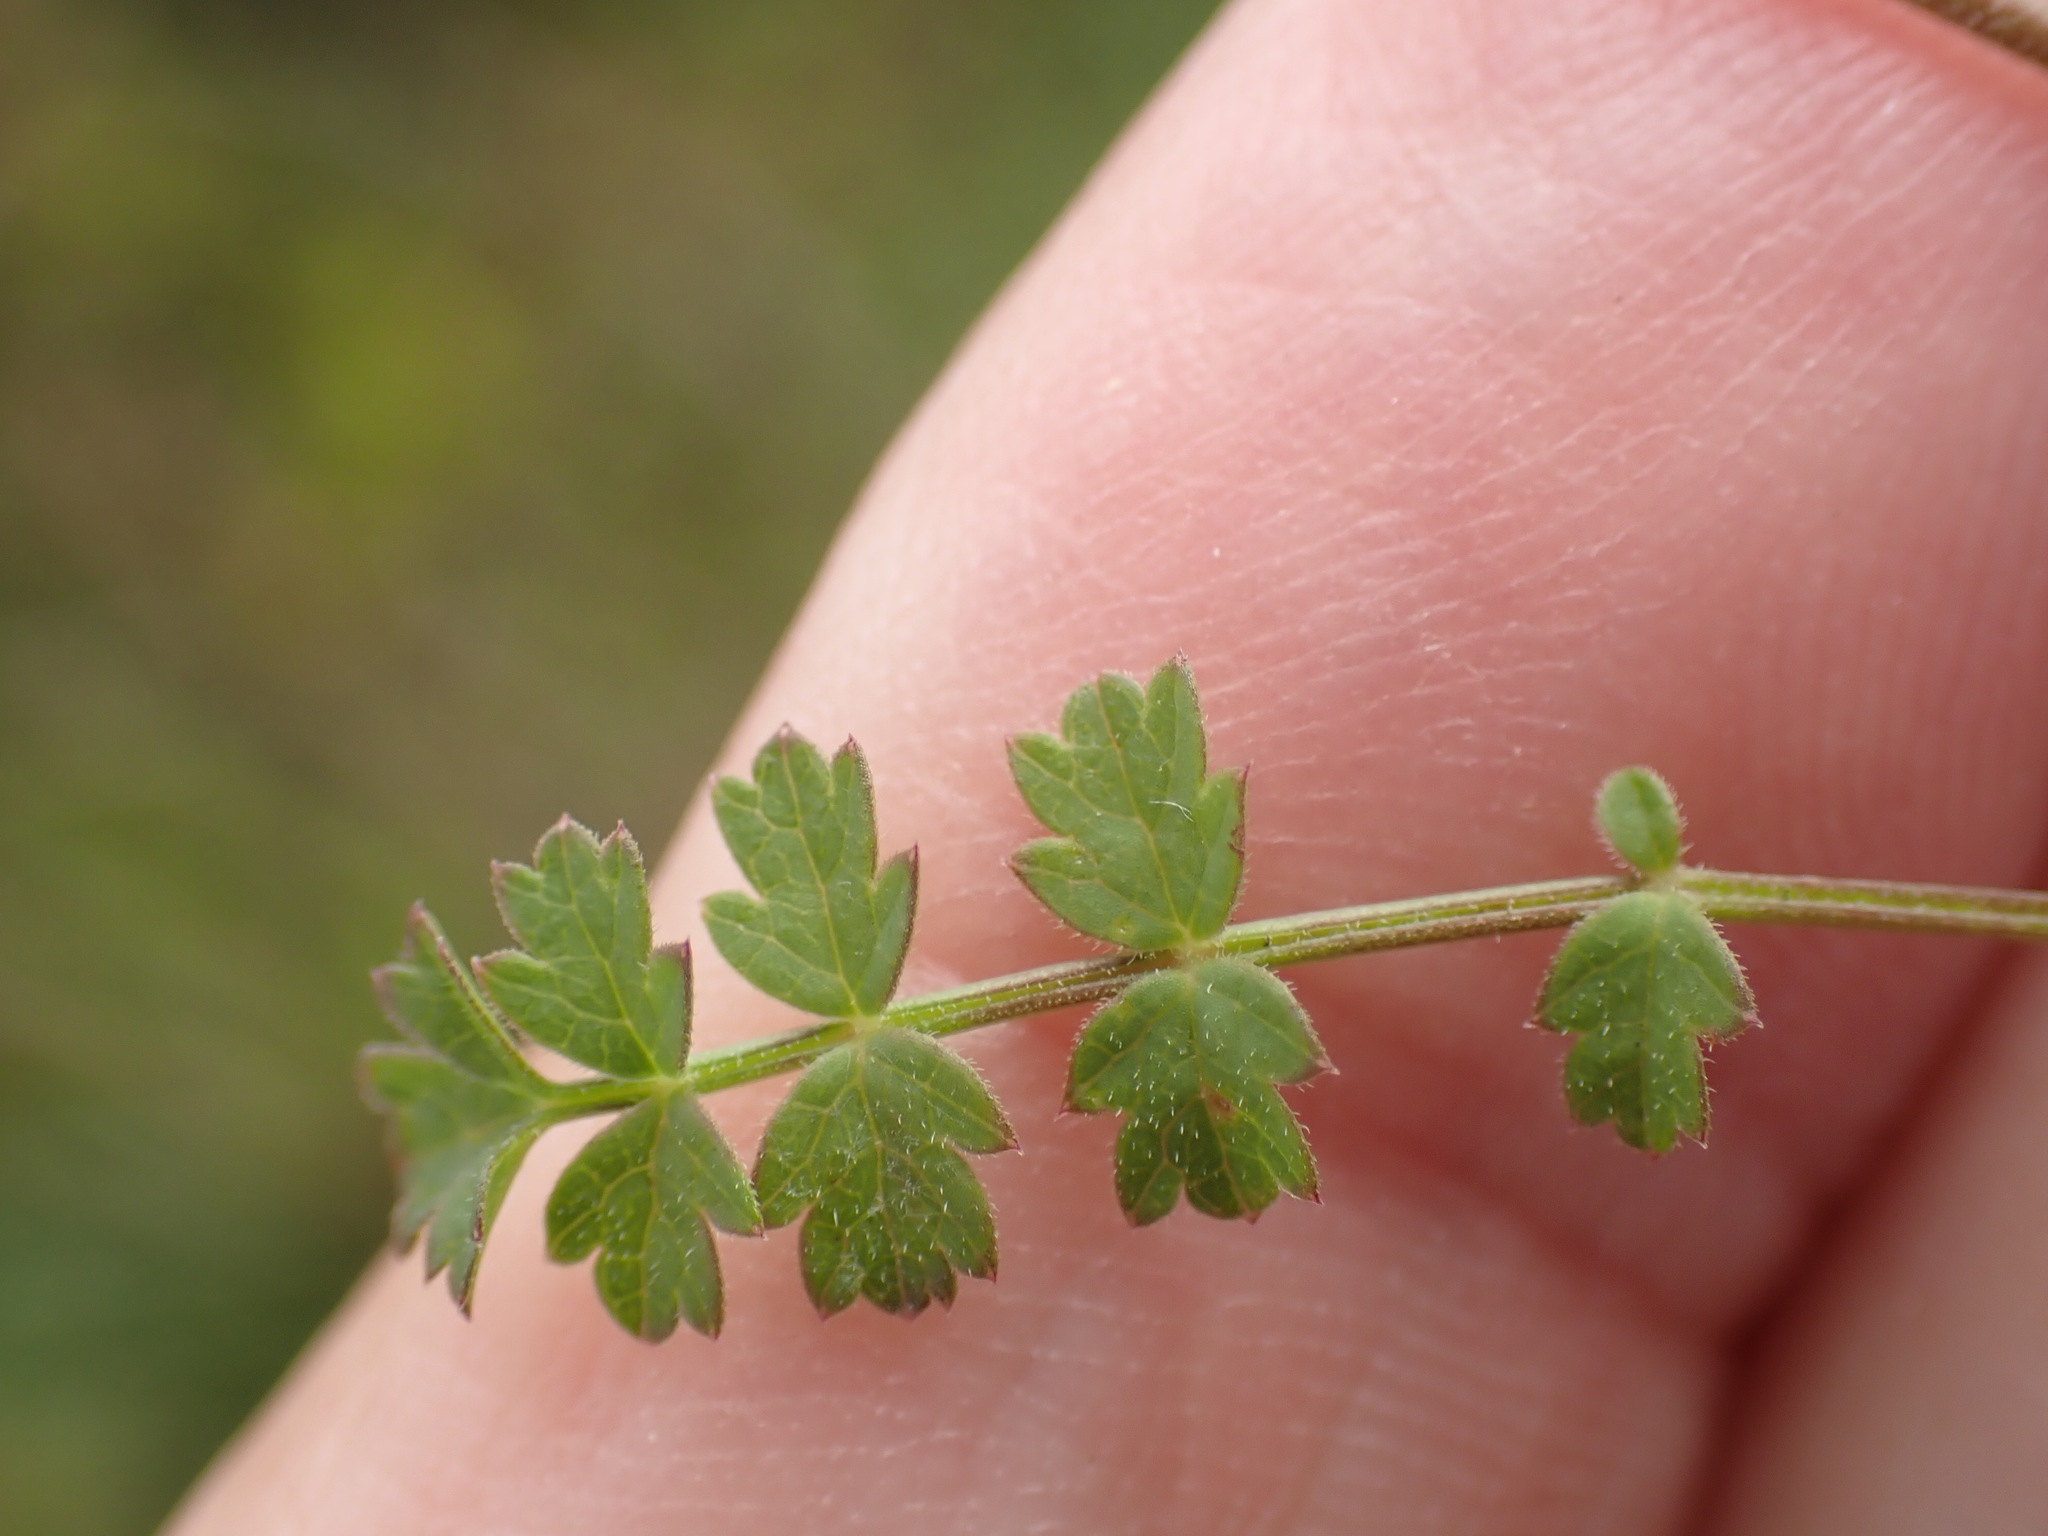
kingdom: Plantae
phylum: Tracheophyta
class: Magnoliopsida
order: Apiales
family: Apiaceae
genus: Pimpinella
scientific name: Pimpinella saxifraga
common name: Burnet-saxifrage
